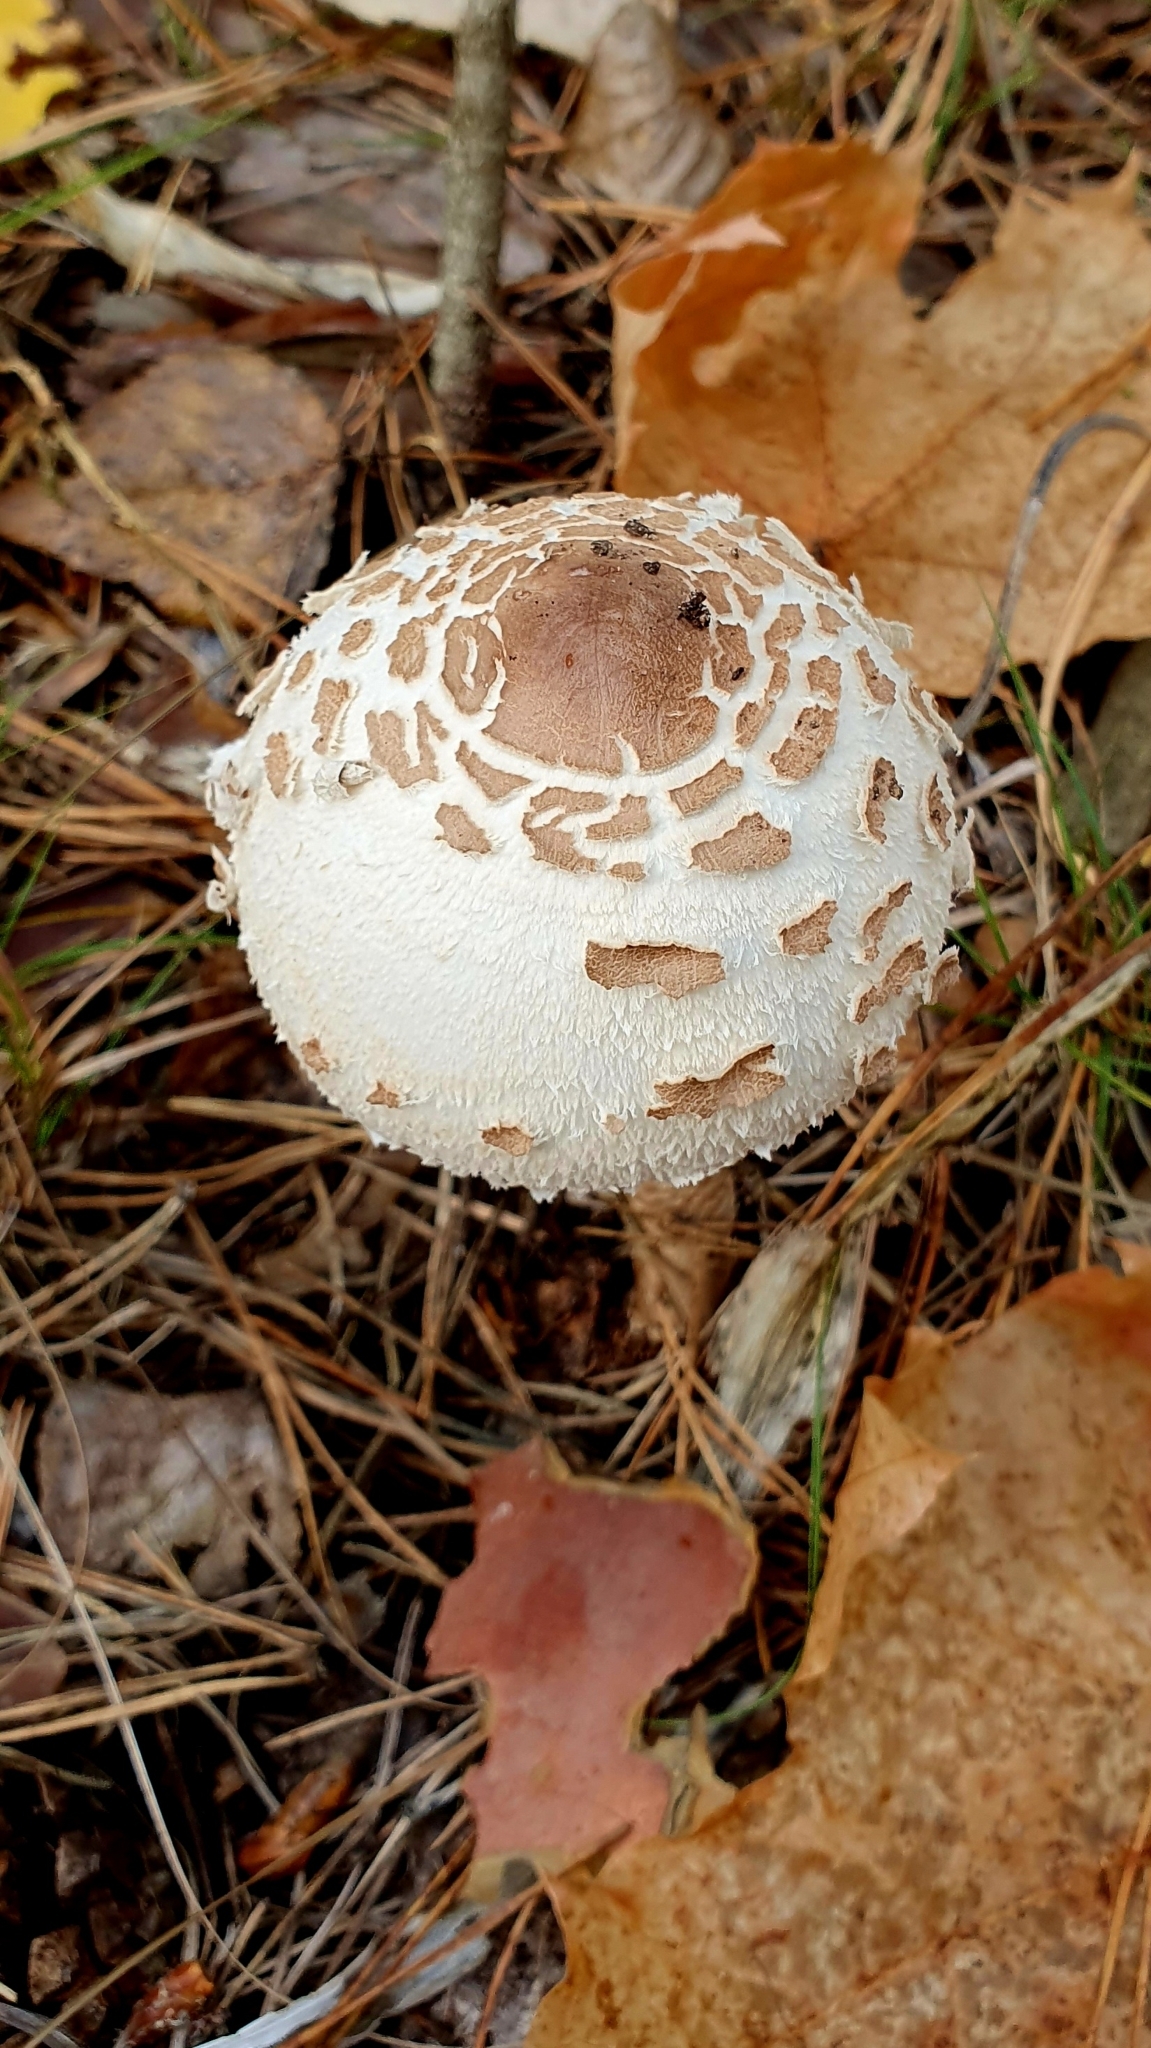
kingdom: Fungi
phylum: Basidiomycota
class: Agaricomycetes
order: Agaricales
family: Agaricaceae
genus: Macrolepiota
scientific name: Macrolepiota procera
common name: Parasol
